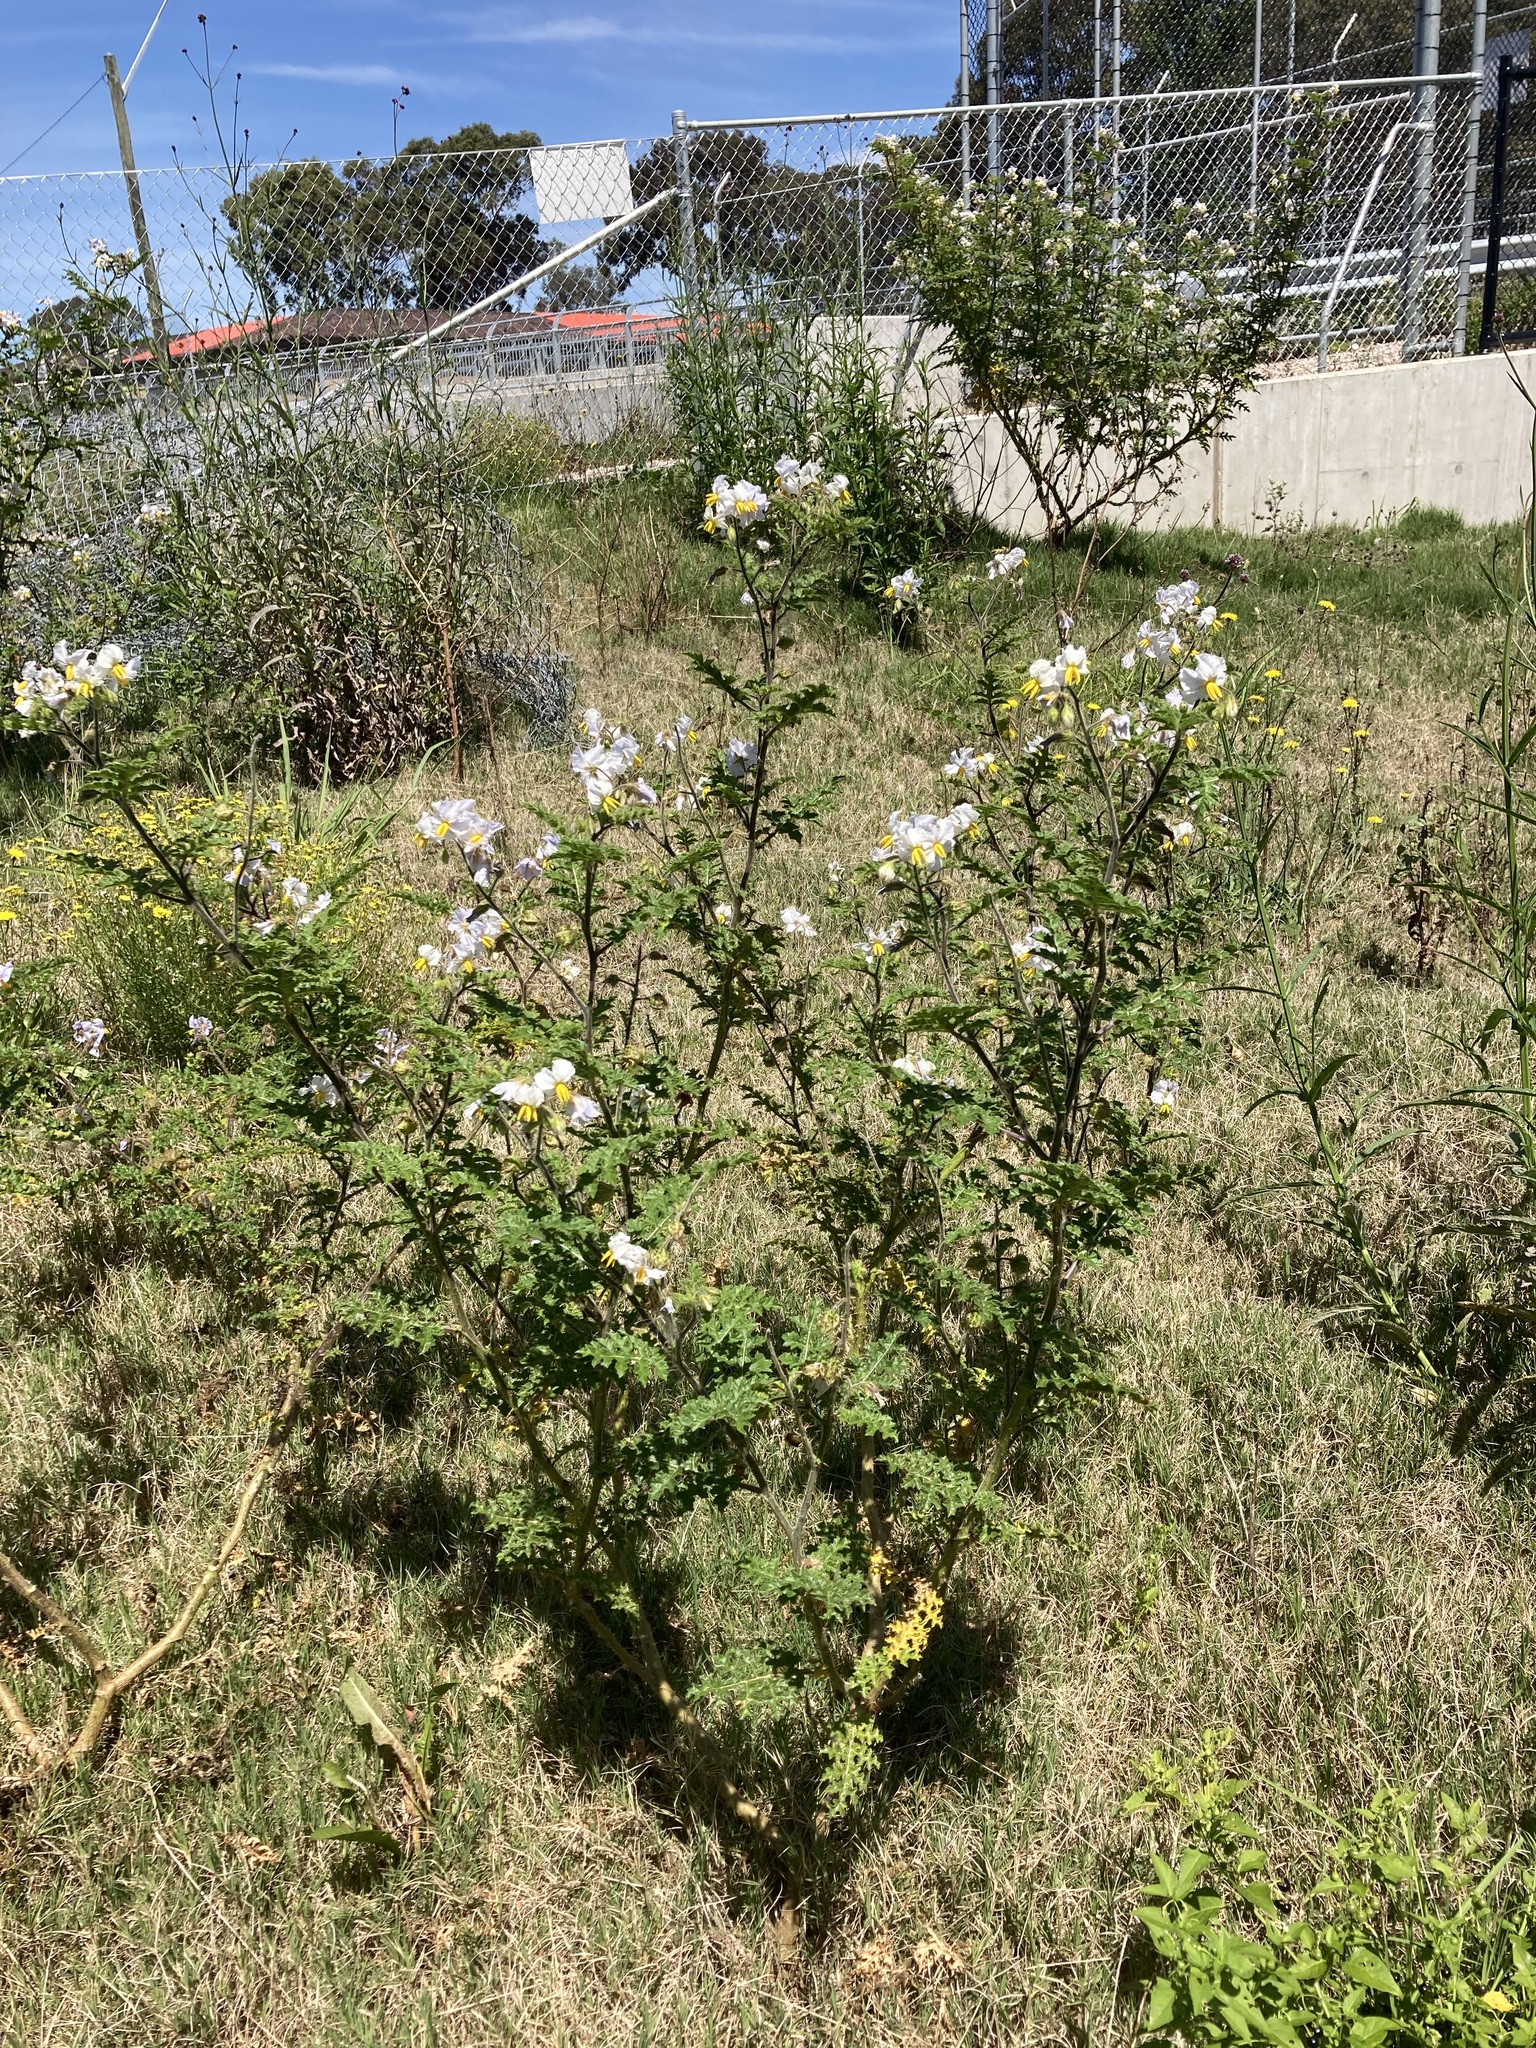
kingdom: Plantae
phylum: Tracheophyta
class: Magnoliopsida
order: Solanales
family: Solanaceae
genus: Solanum
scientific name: Solanum sisymbriifolium
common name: Red buffalo-bur
